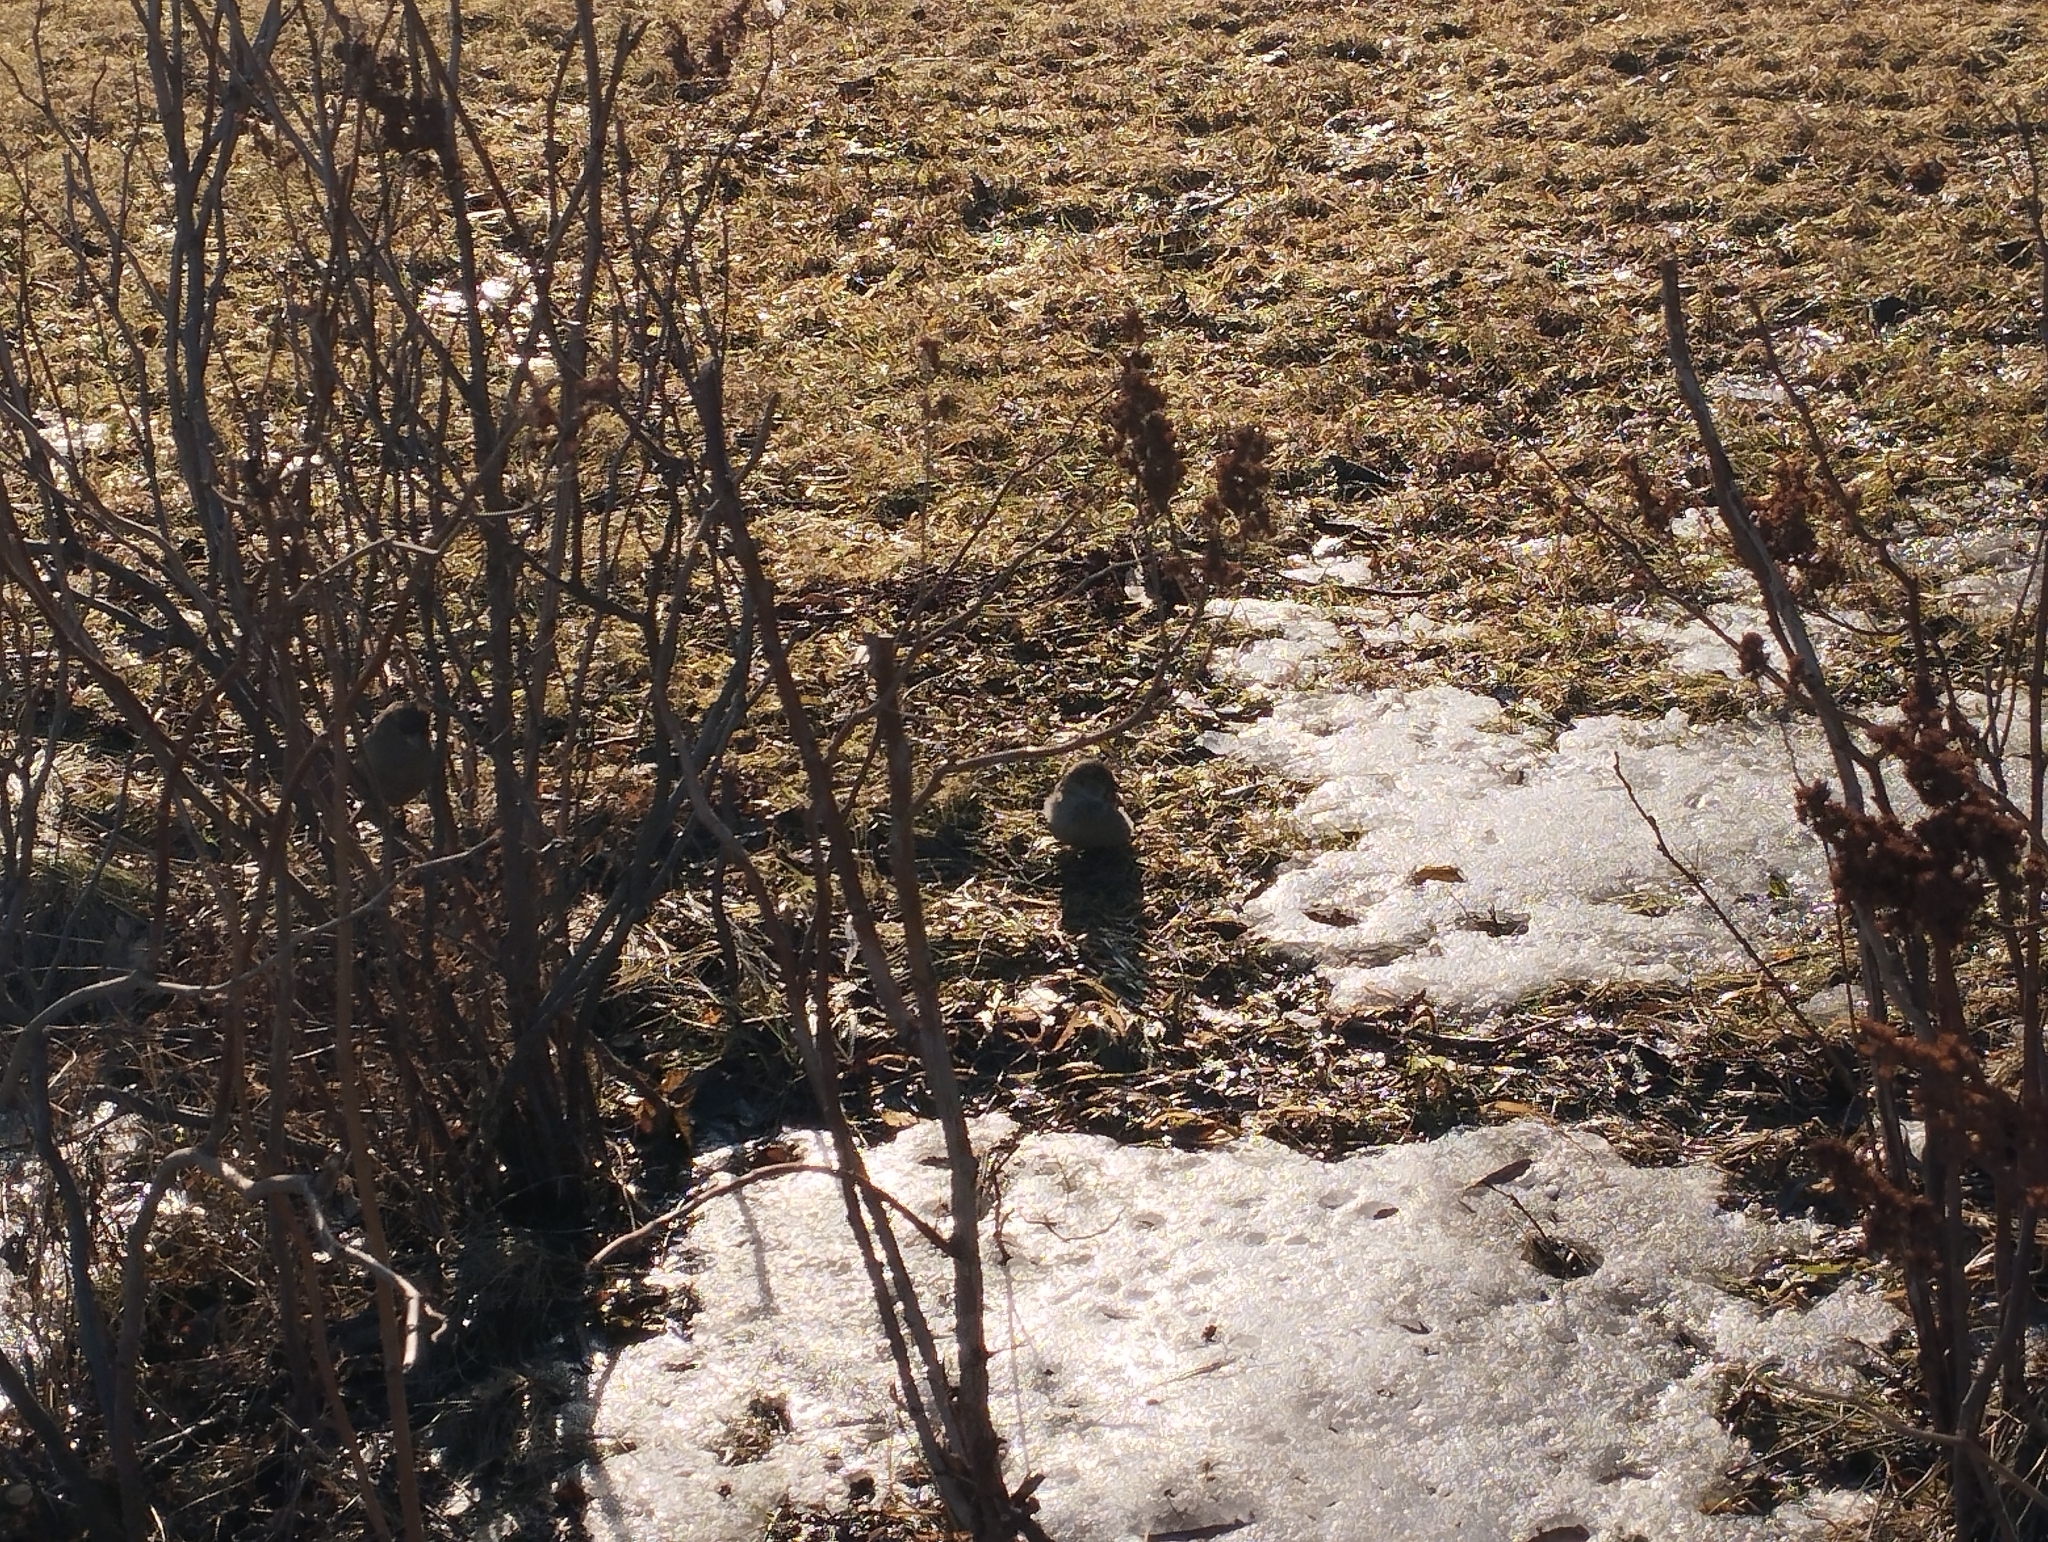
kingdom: Animalia
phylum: Chordata
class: Aves
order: Passeriformes
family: Passeridae
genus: Passer
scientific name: Passer domesticus
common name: House sparrow
